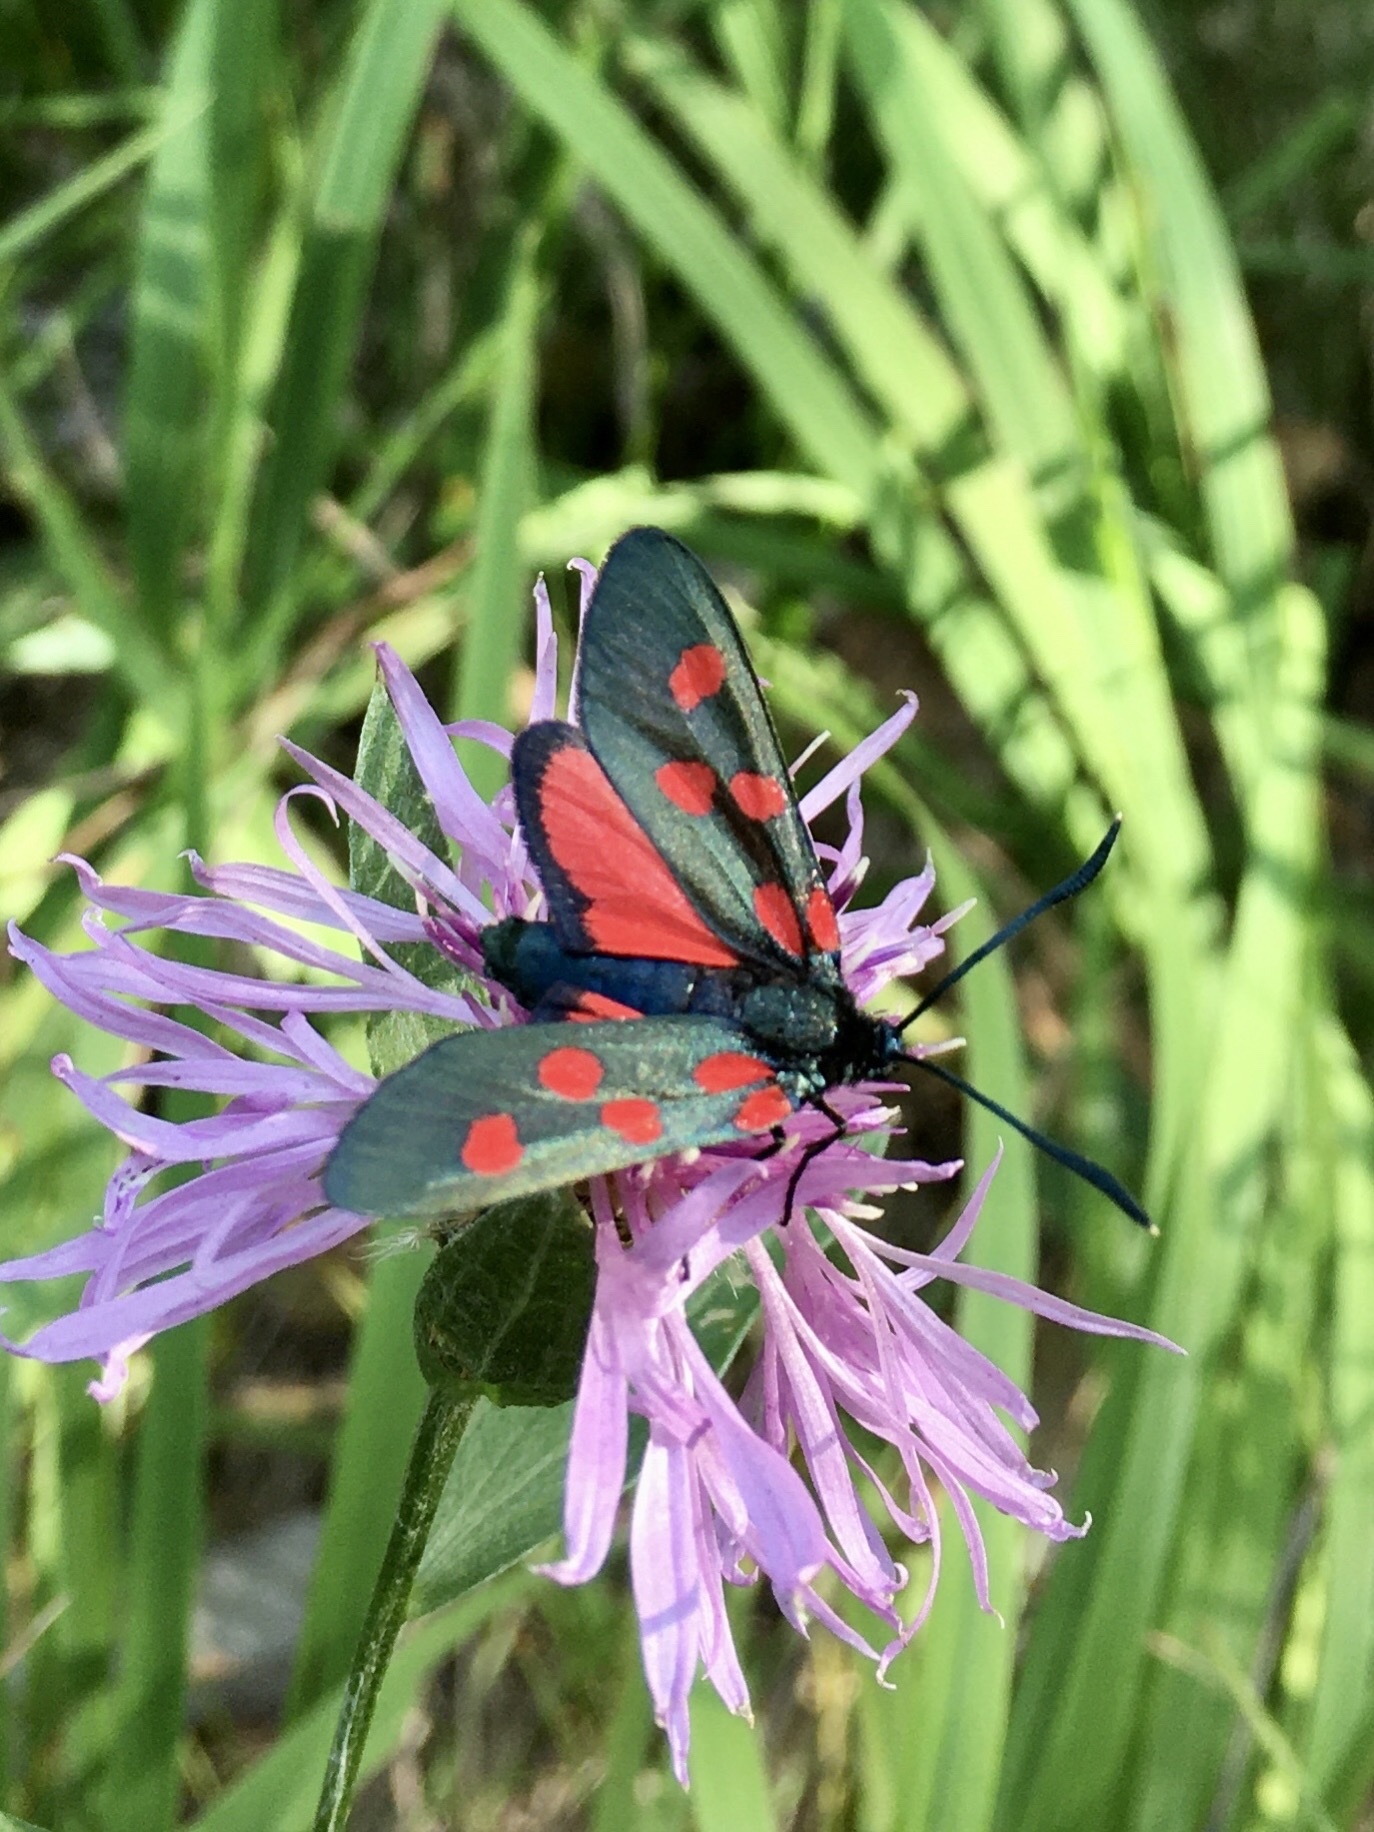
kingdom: Animalia
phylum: Arthropoda
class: Insecta
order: Lepidoptera
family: Zygaenidae
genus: Zygaena
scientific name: Zygaena angelicae
